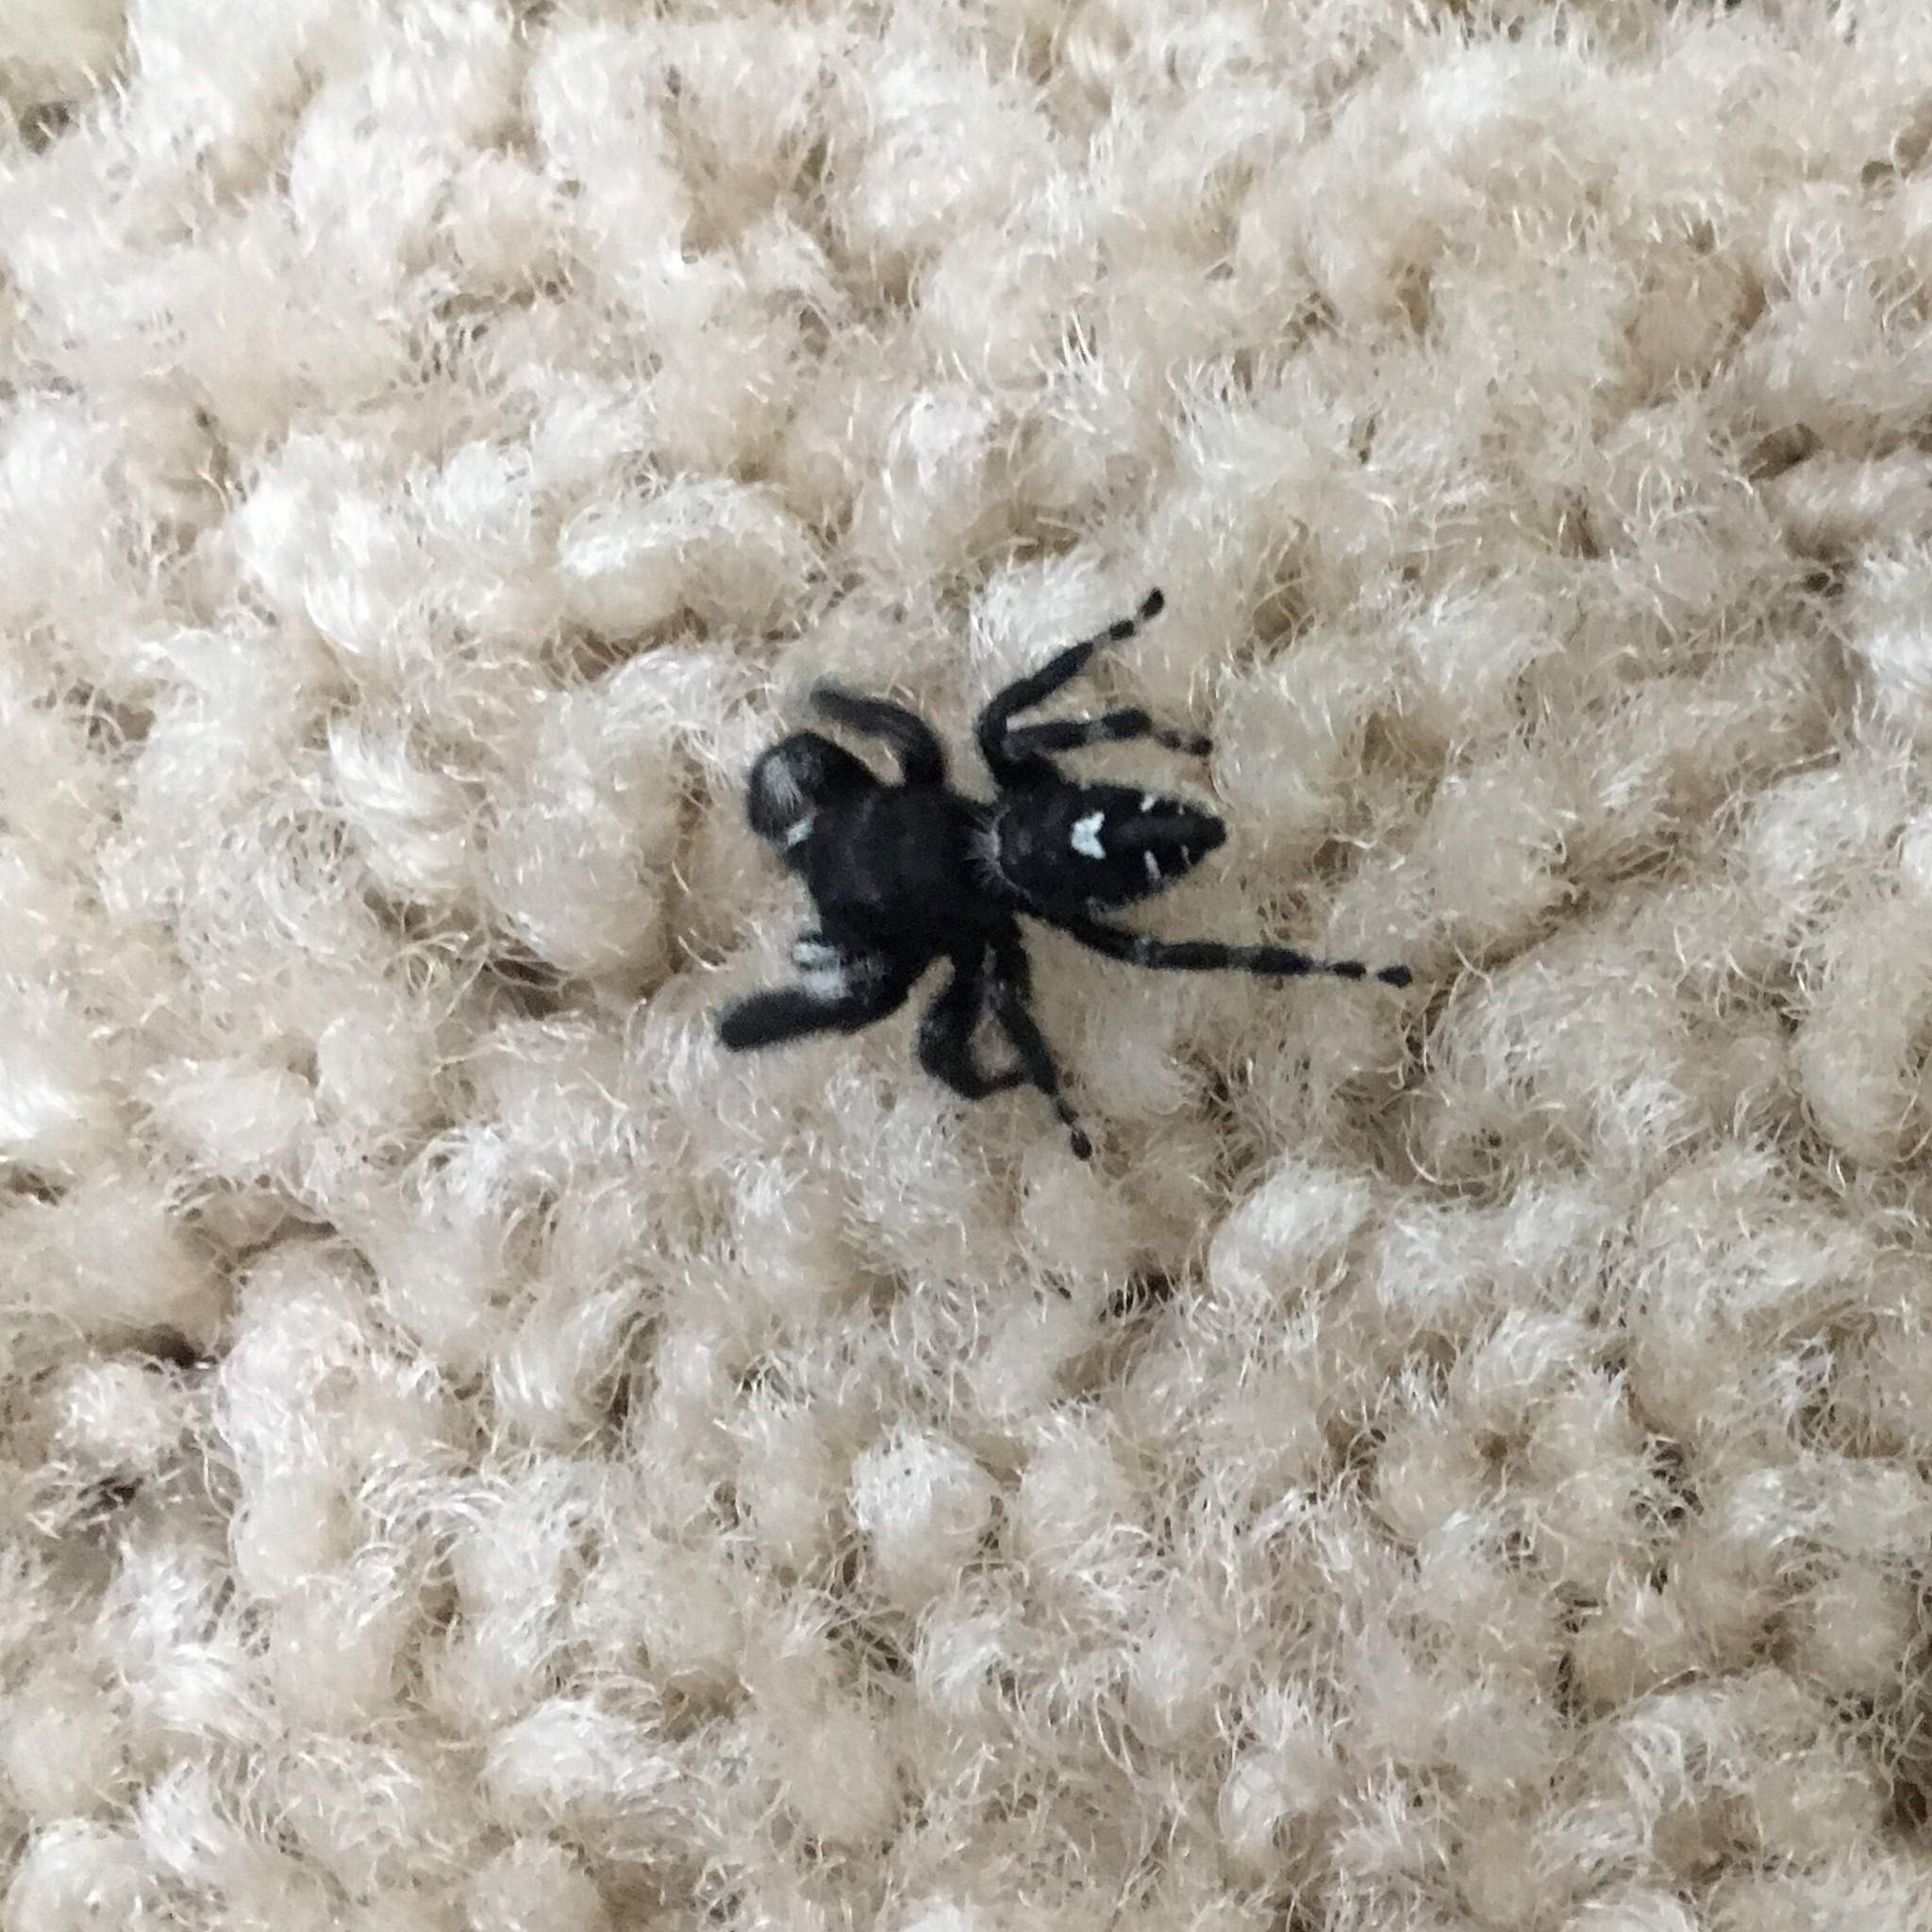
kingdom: Animalia
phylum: Arthropoda
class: Arachnida
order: Araneae
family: Salticidae
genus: Phidippus
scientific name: Phidippus audax
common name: Bold jumper
